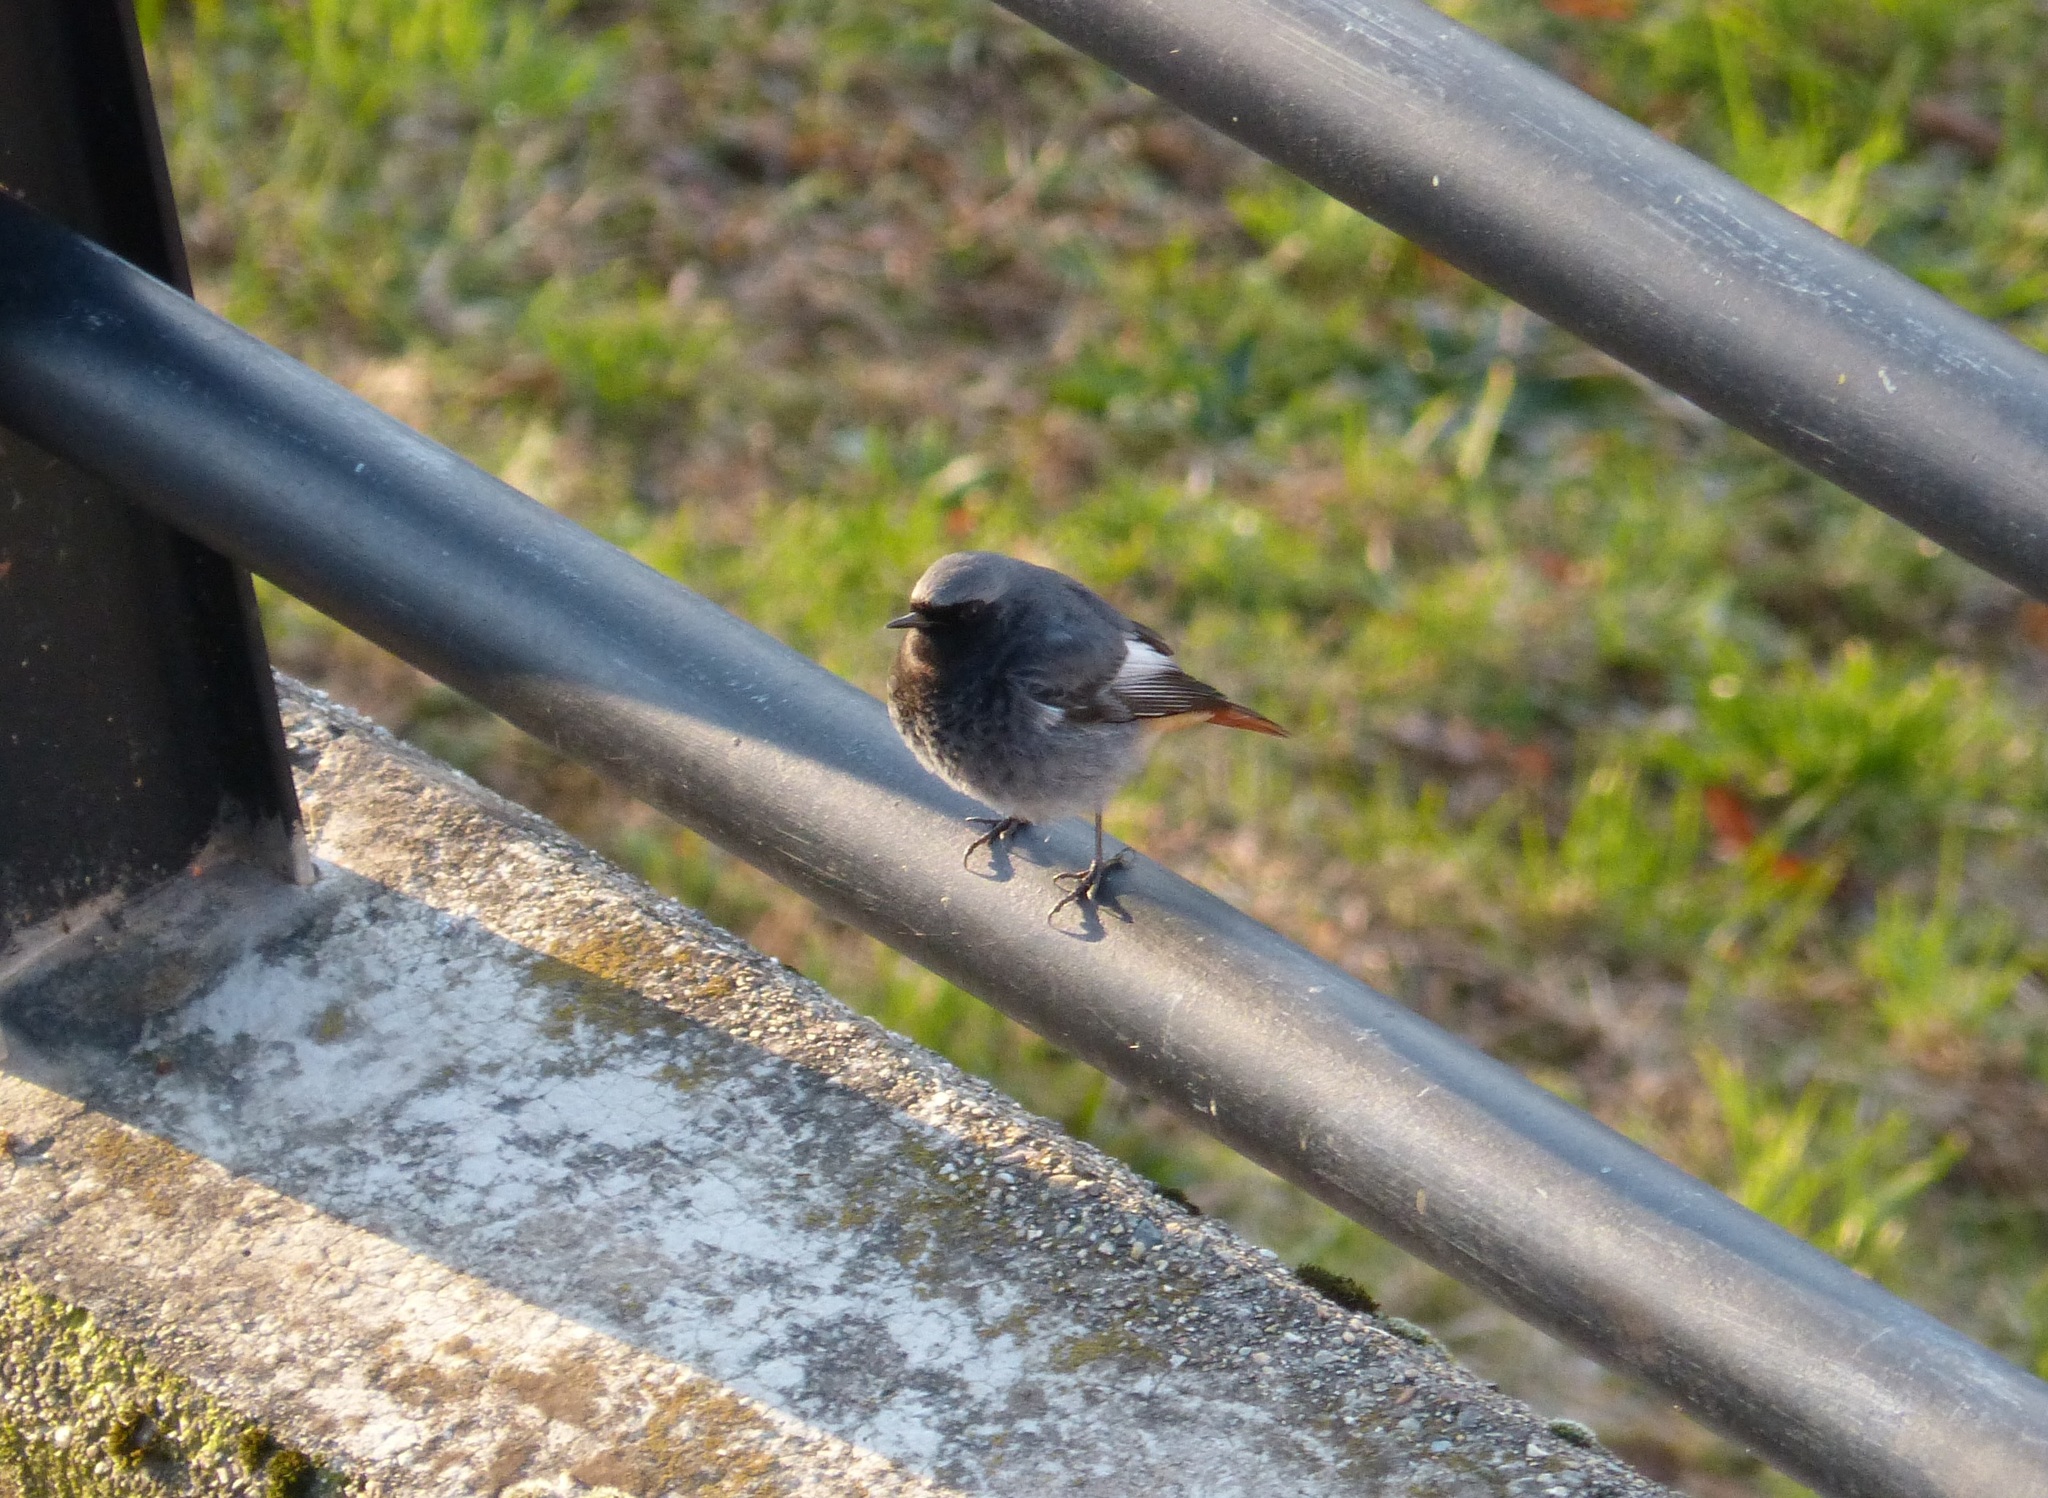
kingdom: Animalia
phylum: Chordata
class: Aves
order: Passeriformes
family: Muscicapidae
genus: Phoenicurus
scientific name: Phoenicurus ochruros
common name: Black redstart
